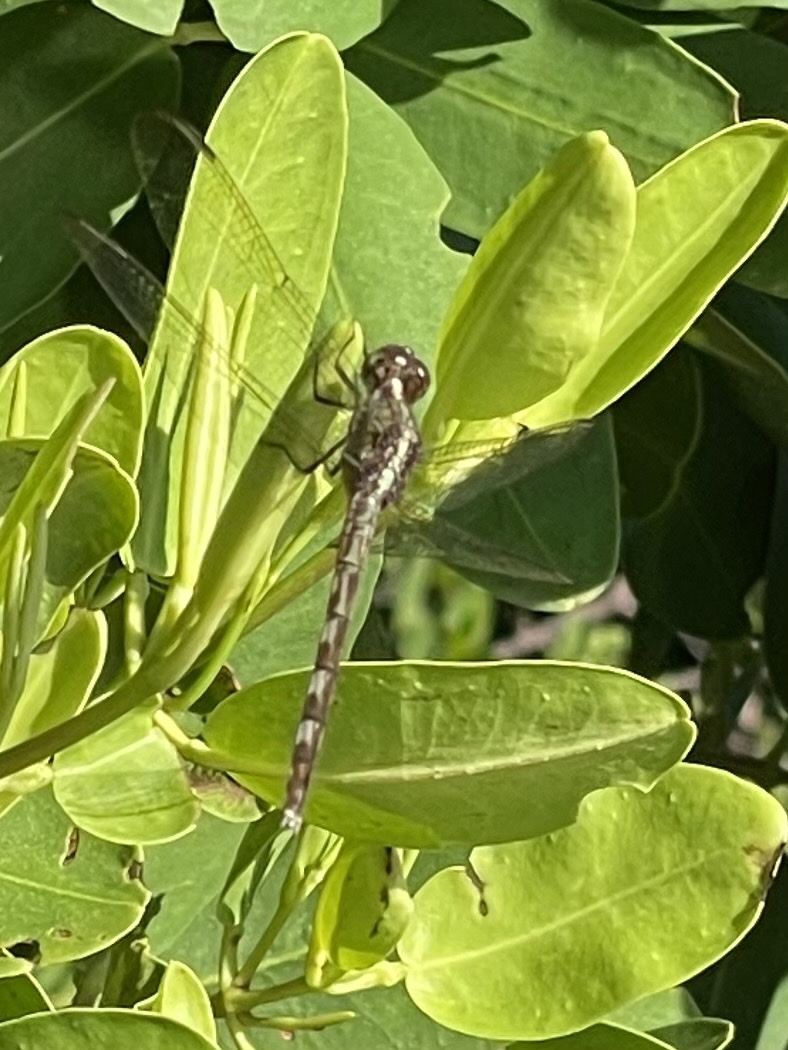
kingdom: Animalia
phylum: Arthropoda
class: Insecta
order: Odonata
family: Libellulidae
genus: Erythrodiplax
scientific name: Erythrodiplax umbrata
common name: Band-winged dragonlet
